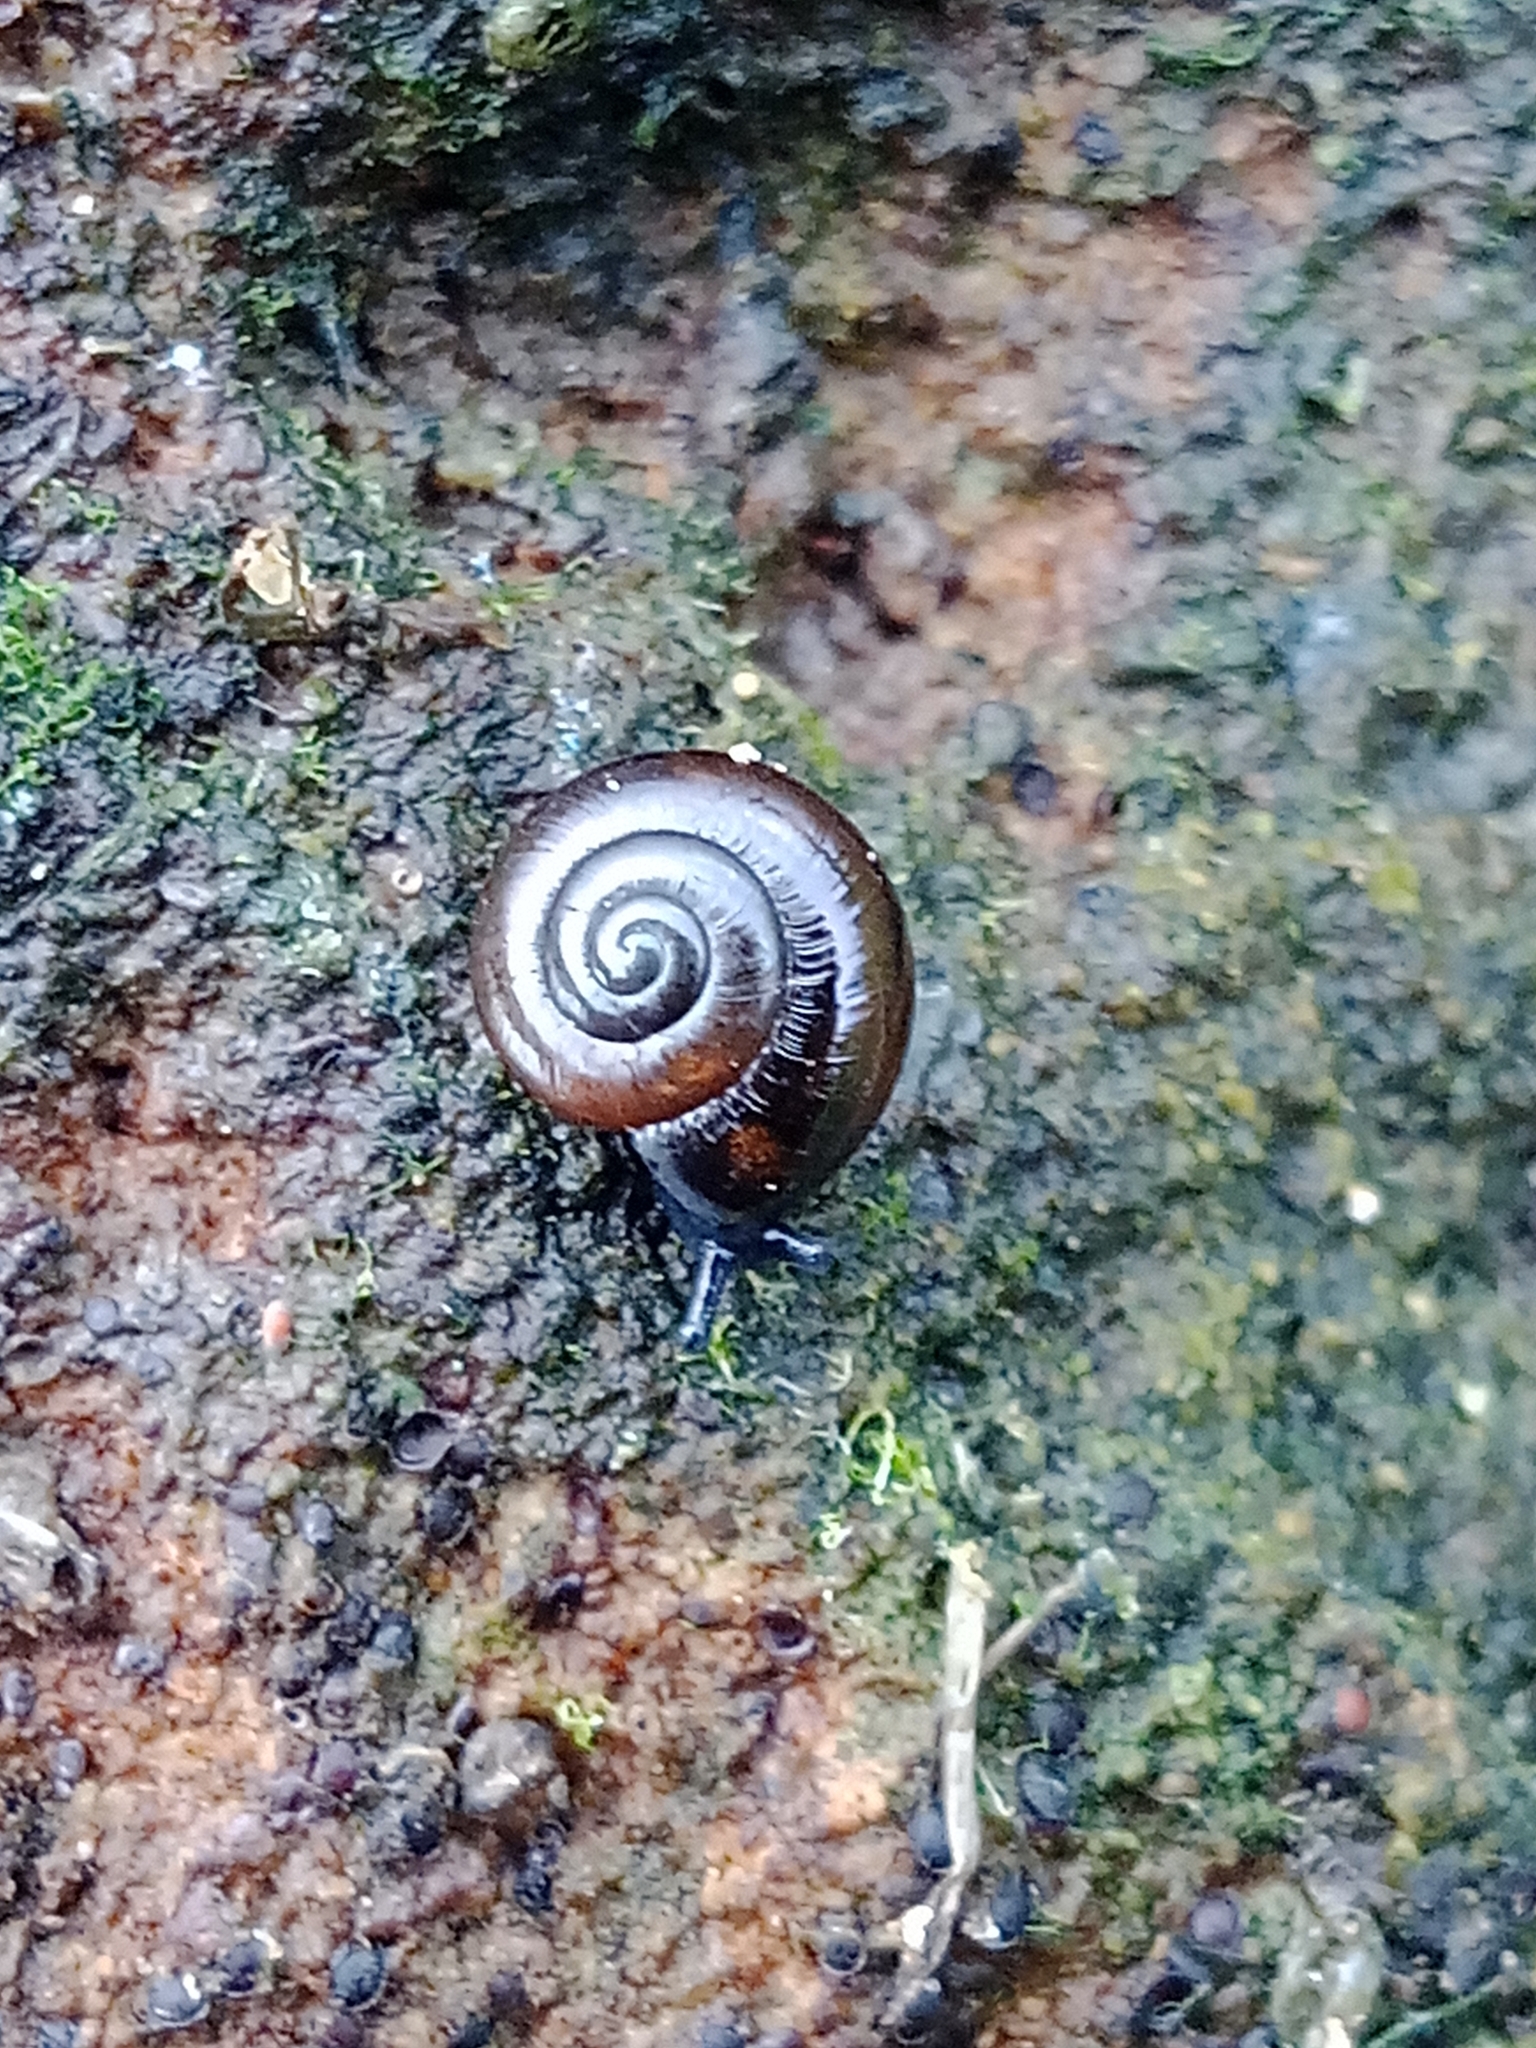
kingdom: Animalia
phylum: Mollusca
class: Gastropoda
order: Stylommatophora
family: Gastrodontidae
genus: Zonitoides
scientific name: Zonitoides nitidus
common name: Shiny glass snail
